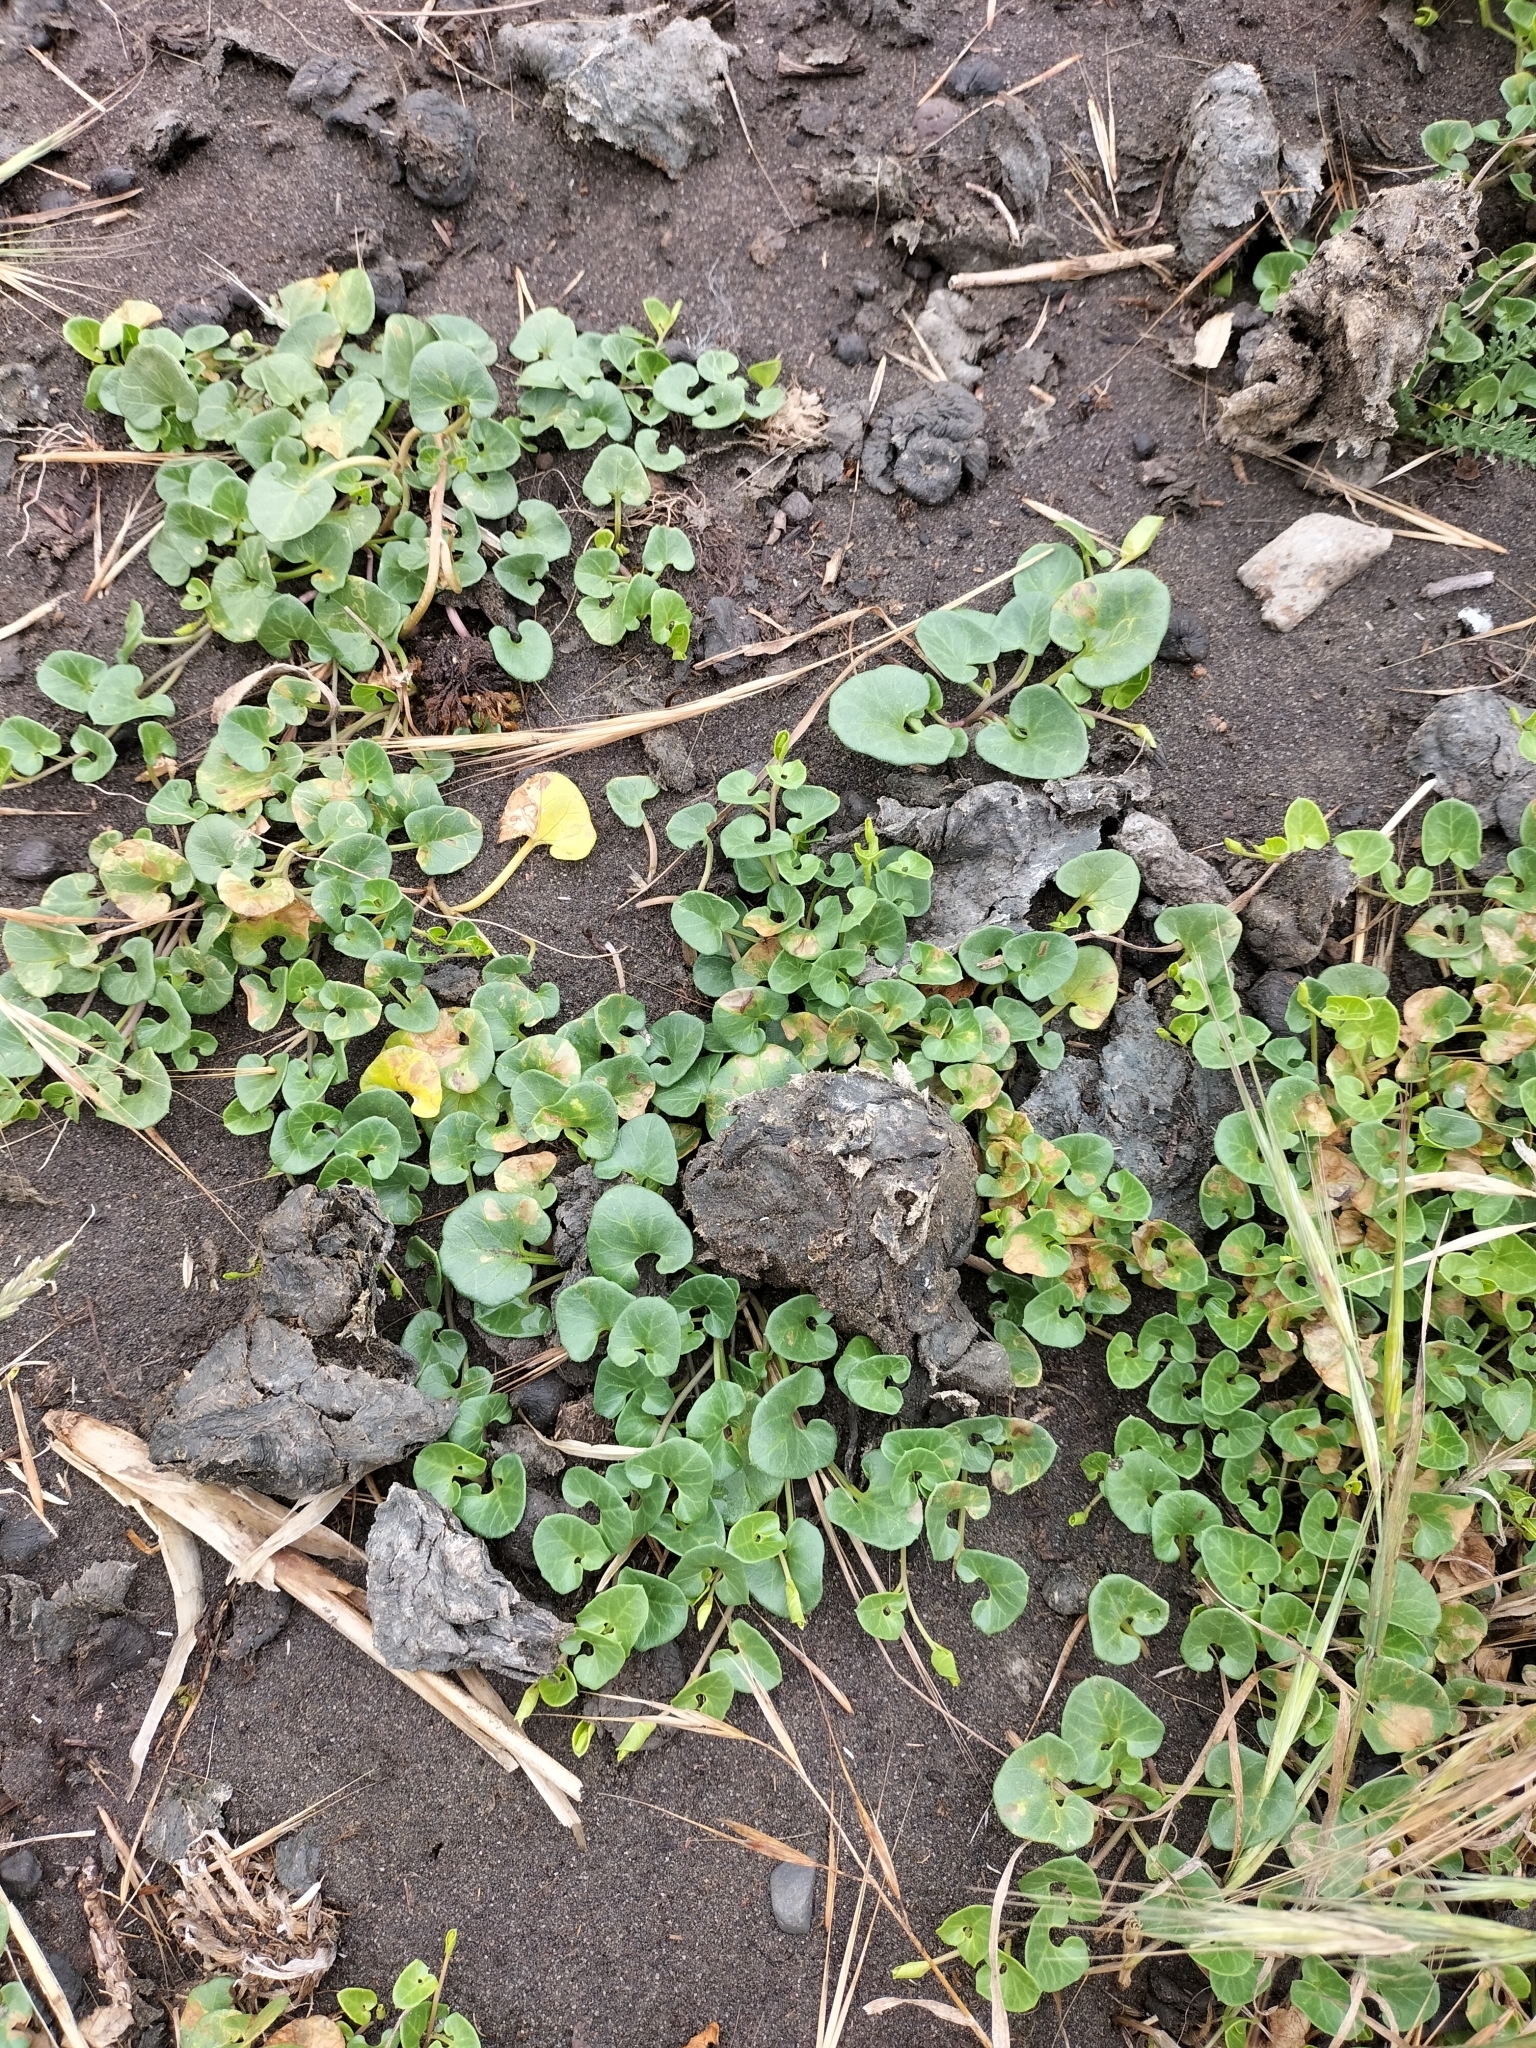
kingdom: Plantae
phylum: Tracheophyta
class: Magnoliopsida
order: Solanales
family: Convolvulaceae
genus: Calystegia
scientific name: Calystegia soldanella
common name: Sea bindweed
